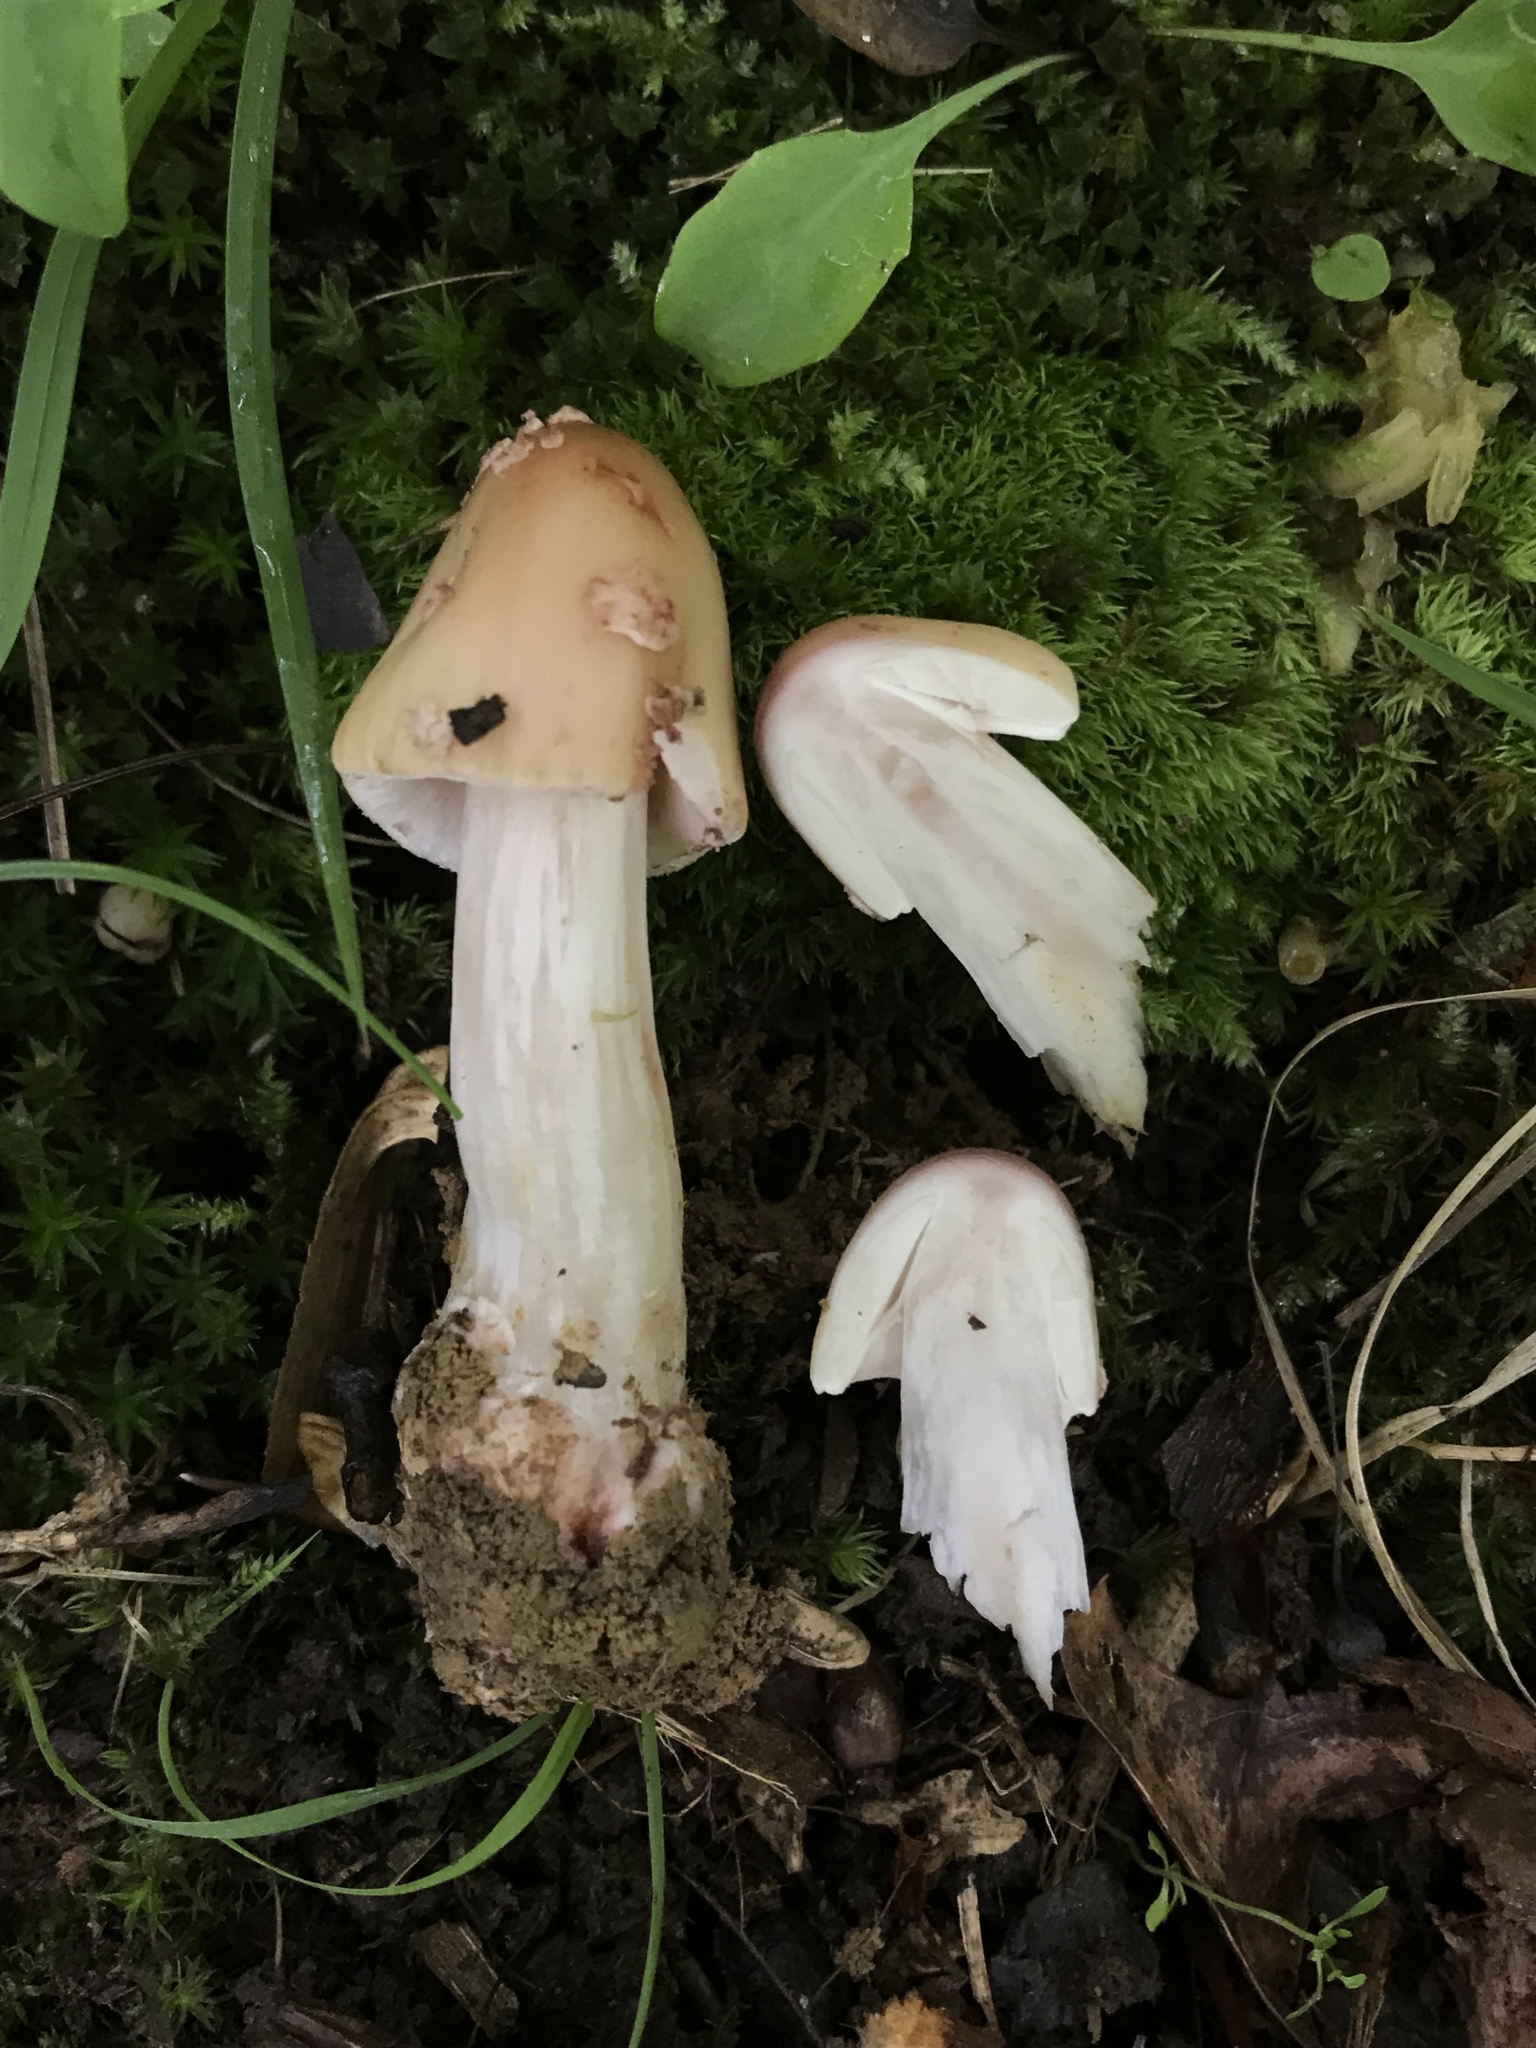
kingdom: Fungi
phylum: Basidiomycota
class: Agaricomycetes
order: Agaricales
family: Amanitaceae
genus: Amanita
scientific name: Amanita rubescens
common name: Blusher
